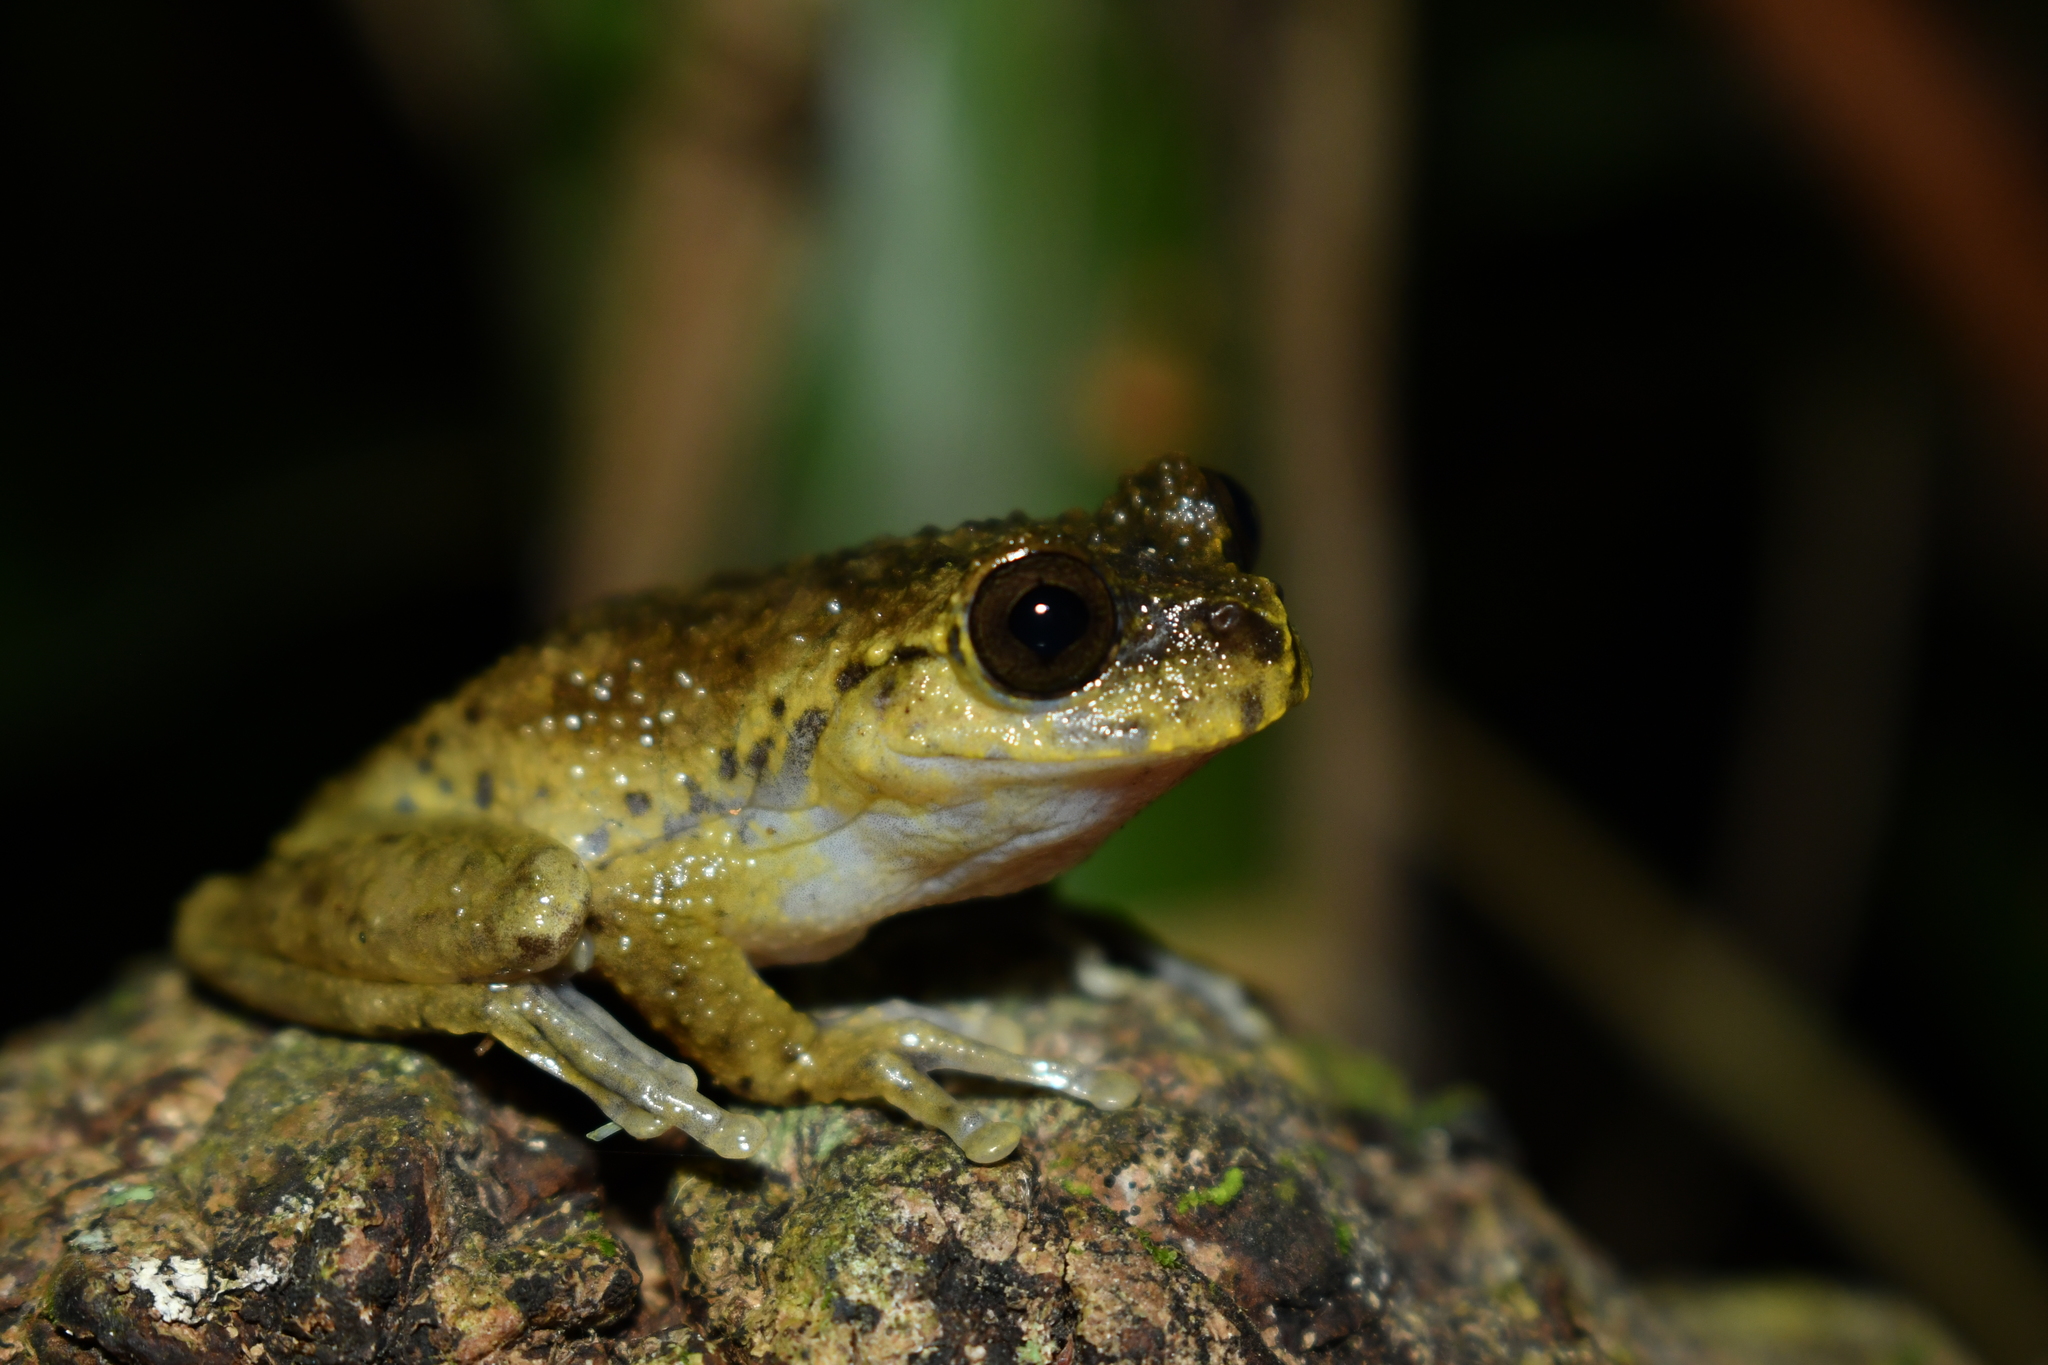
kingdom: Animalia
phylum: Chordata
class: Amphibia
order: Anura
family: Hylidae
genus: Plectrohyla
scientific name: Plectrohyla matudai
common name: Matuda's spikethumb frog
